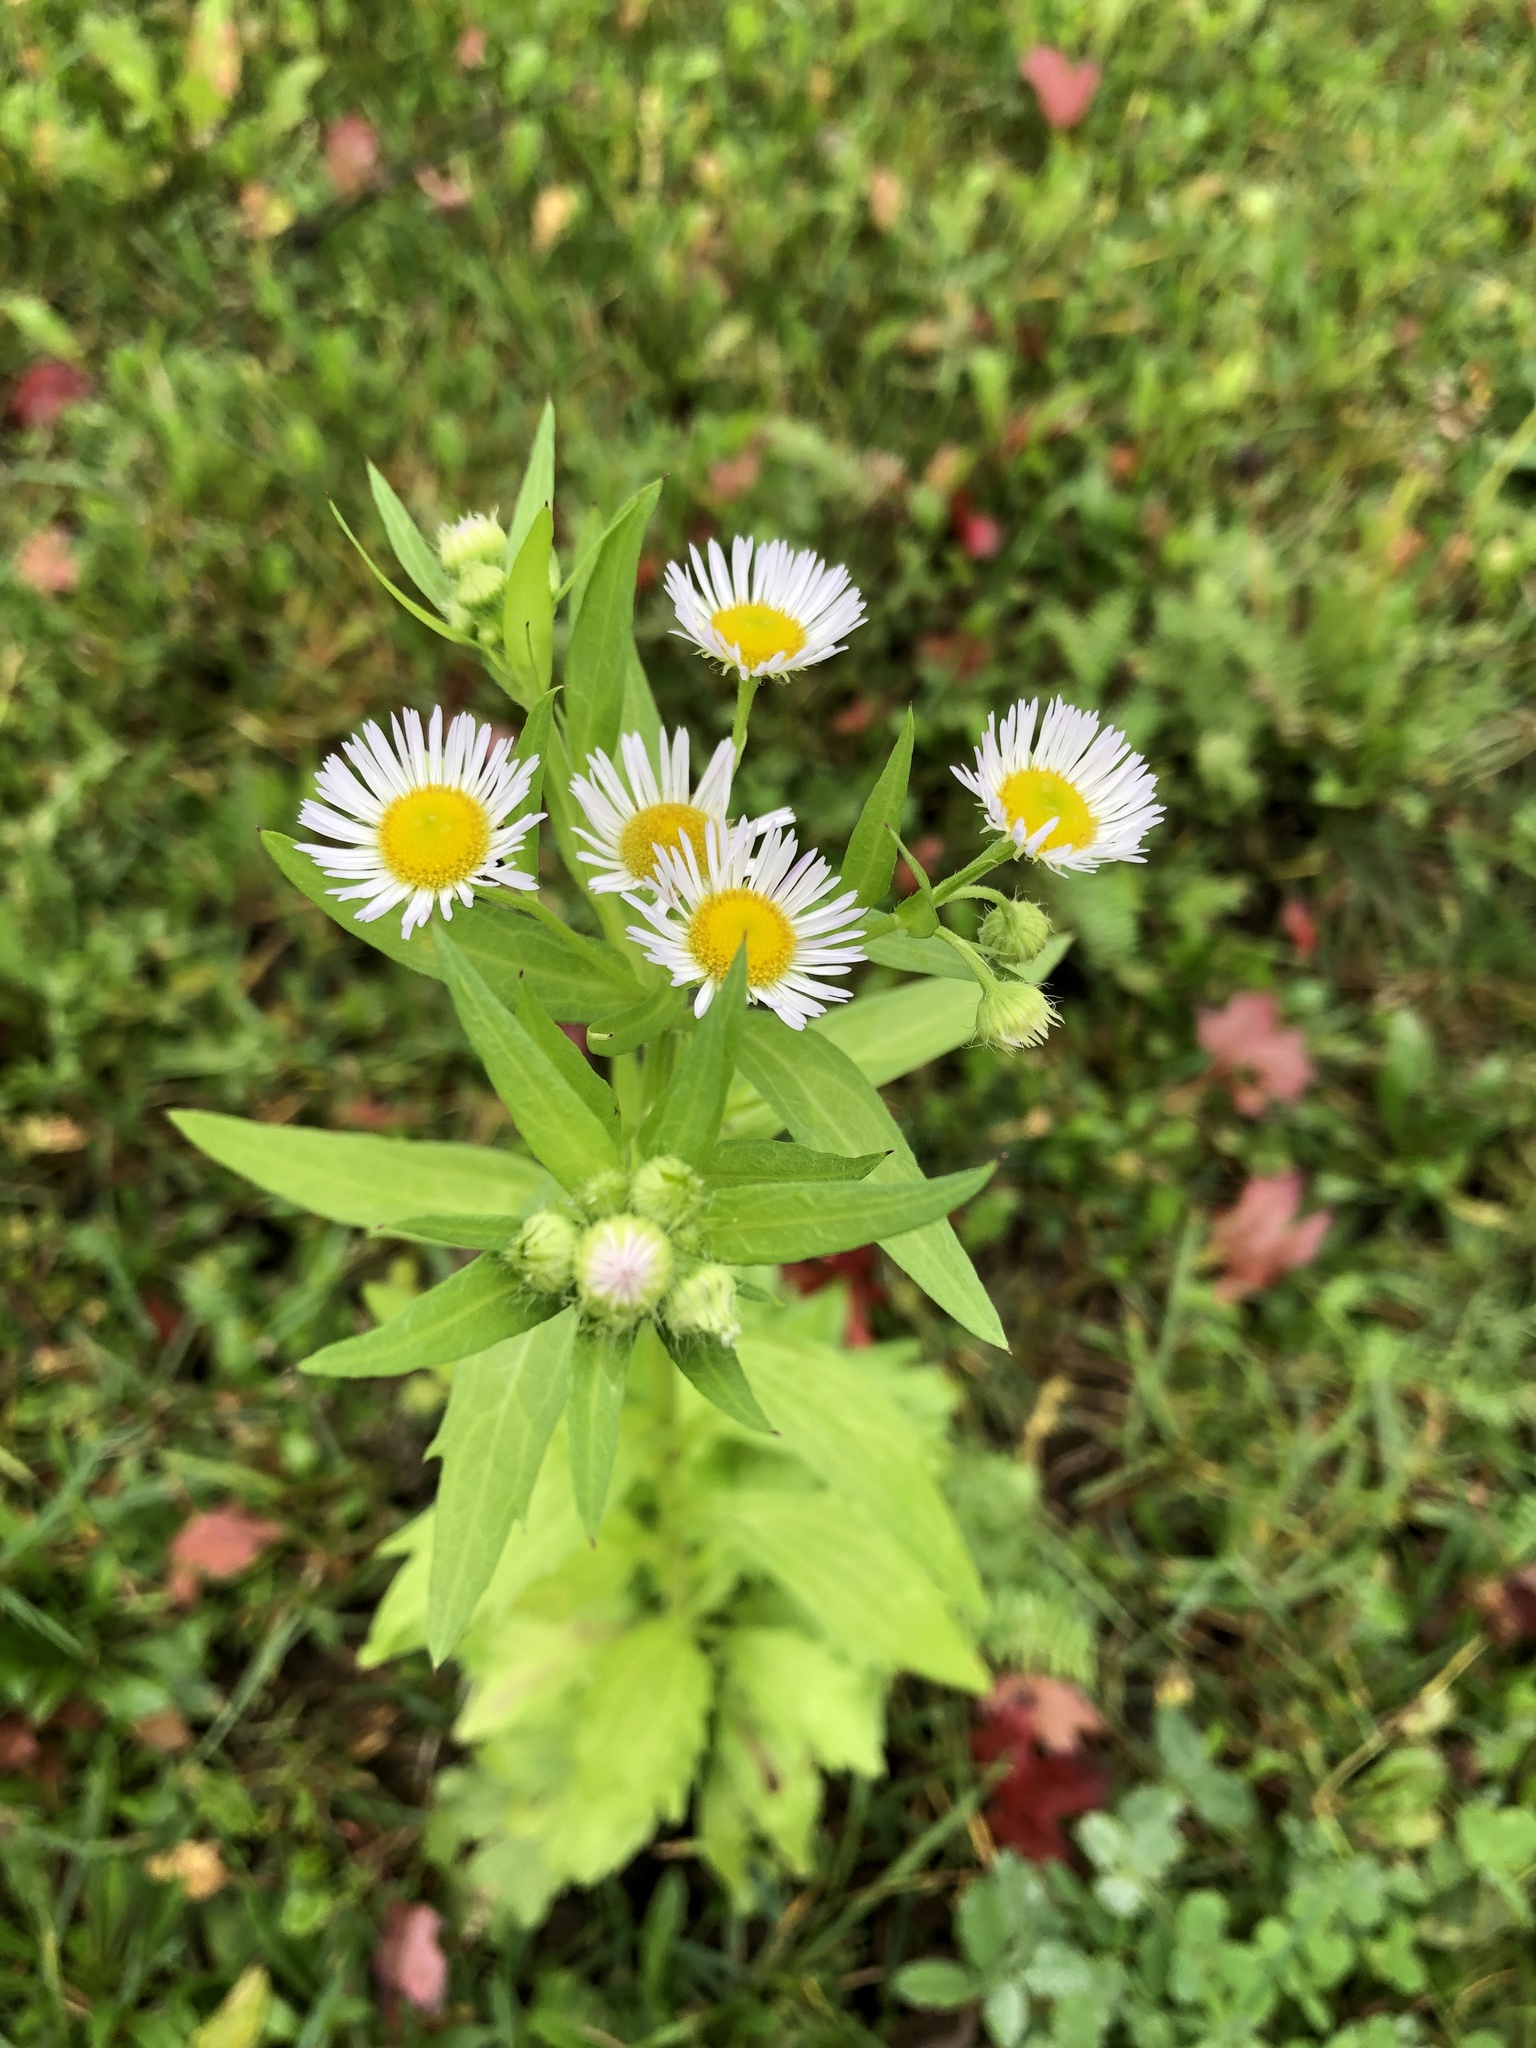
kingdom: Plantae
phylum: Tracheophyta
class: Magnoliopsida
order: Asterales
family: Asteraceae
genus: Erigeron
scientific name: Erigeron annuus
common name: Tall fleabane
